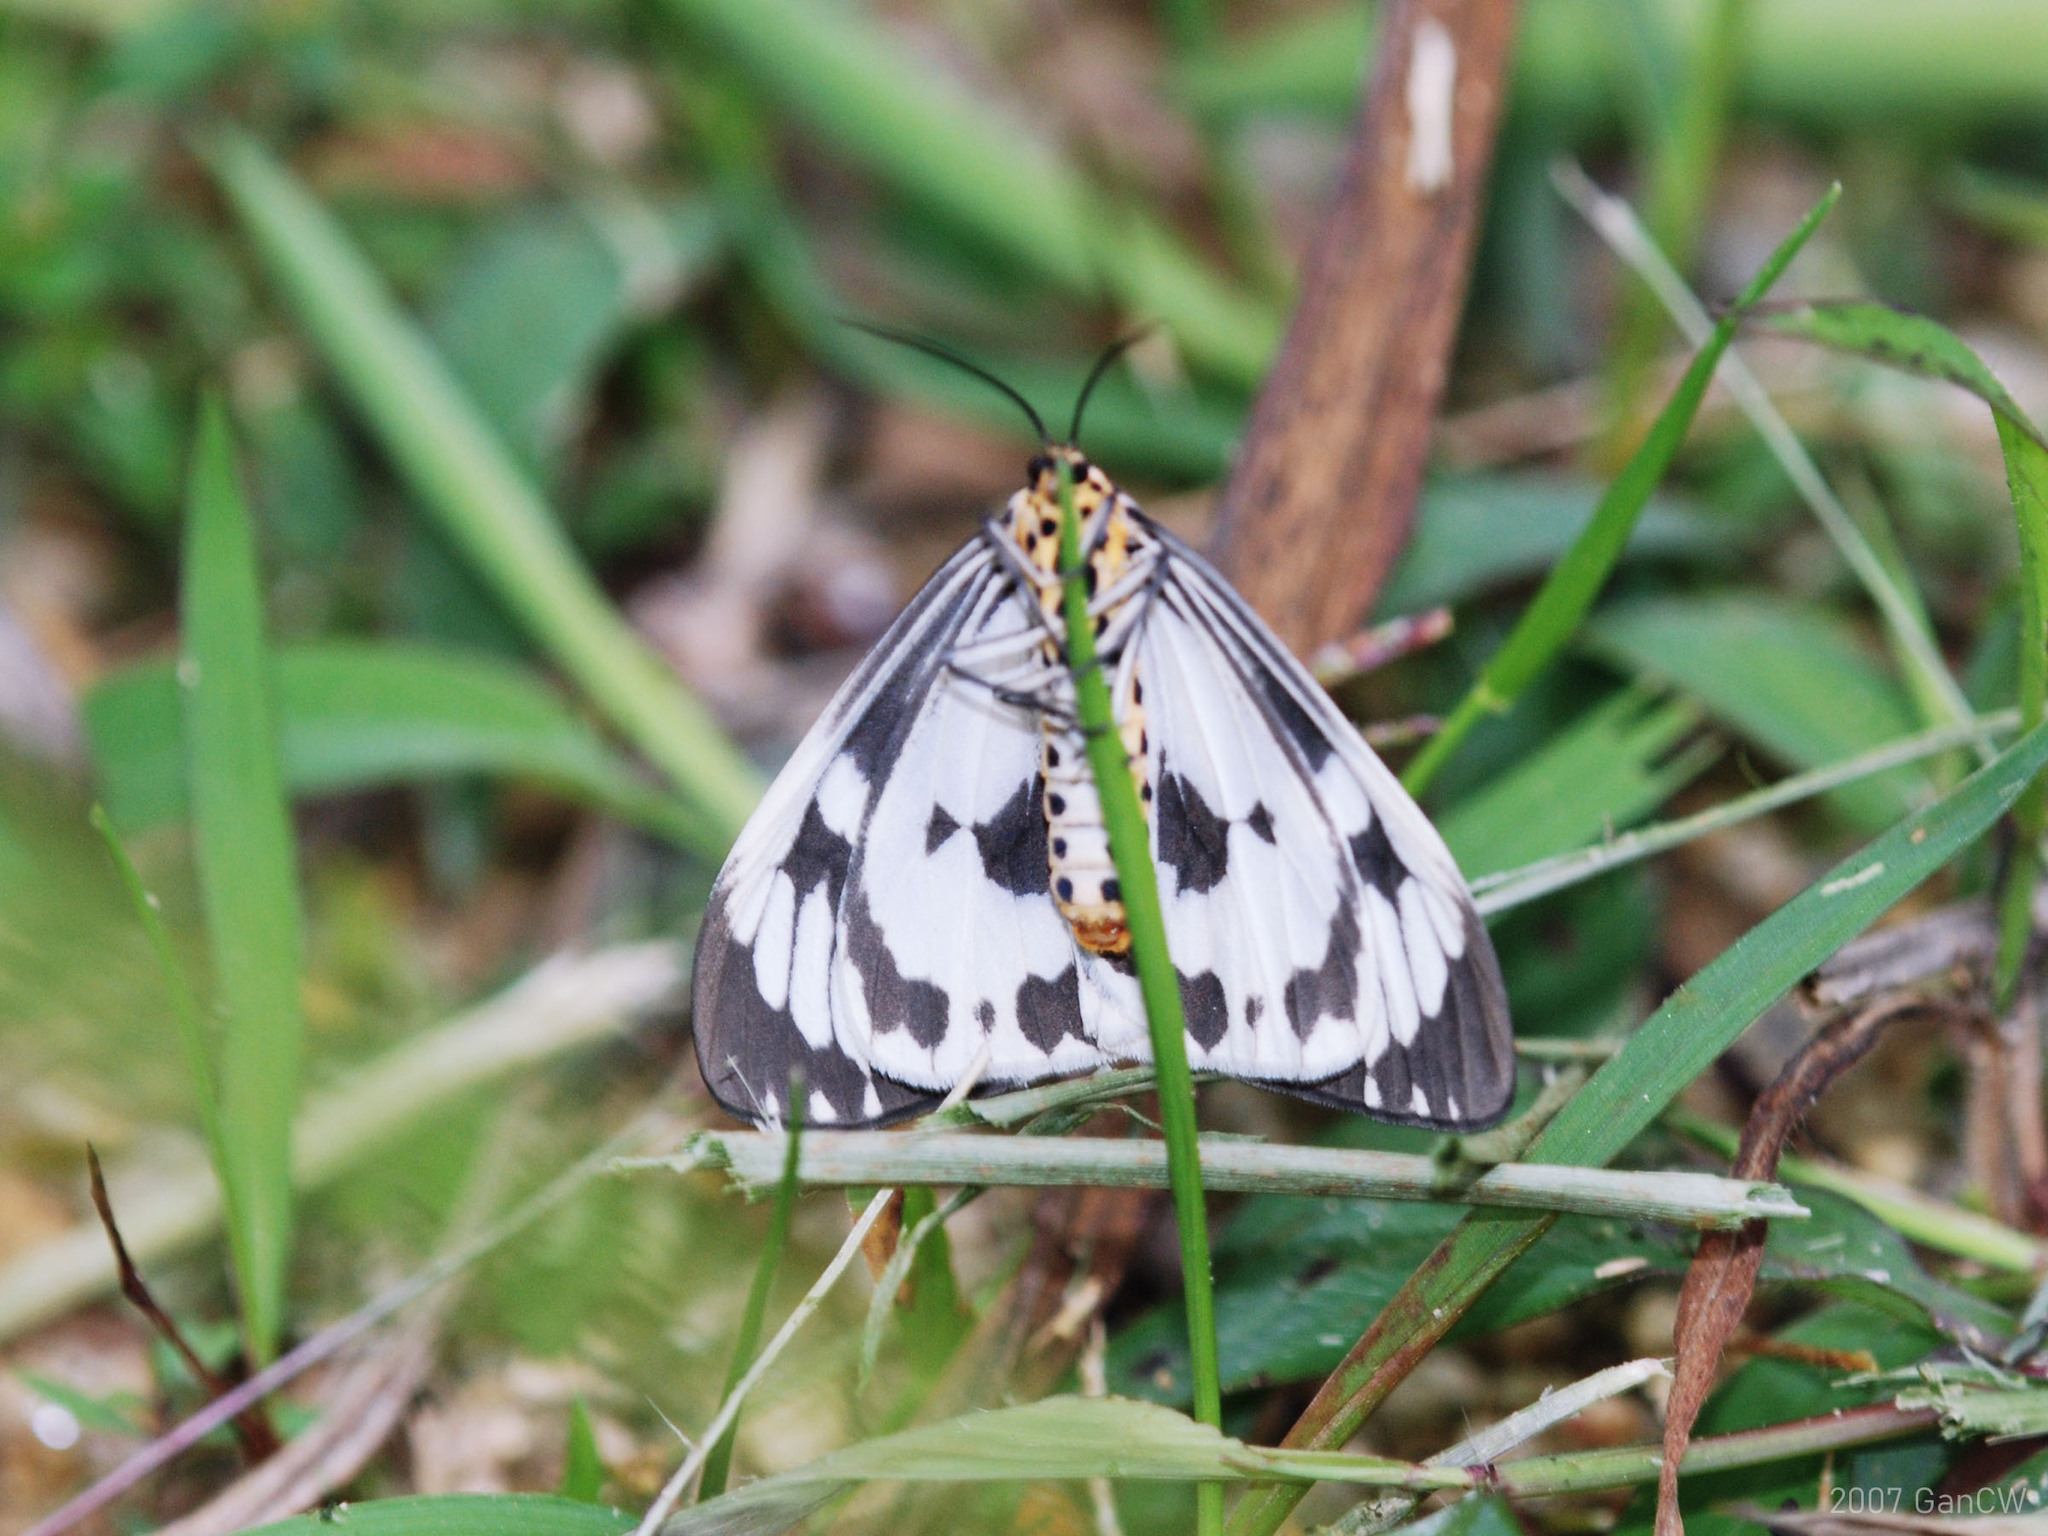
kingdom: Animalia
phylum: Arthropoda
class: Insecta
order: Lepidoptera
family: Erebidae
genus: Nyctemera
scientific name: Nyctemera adversata
